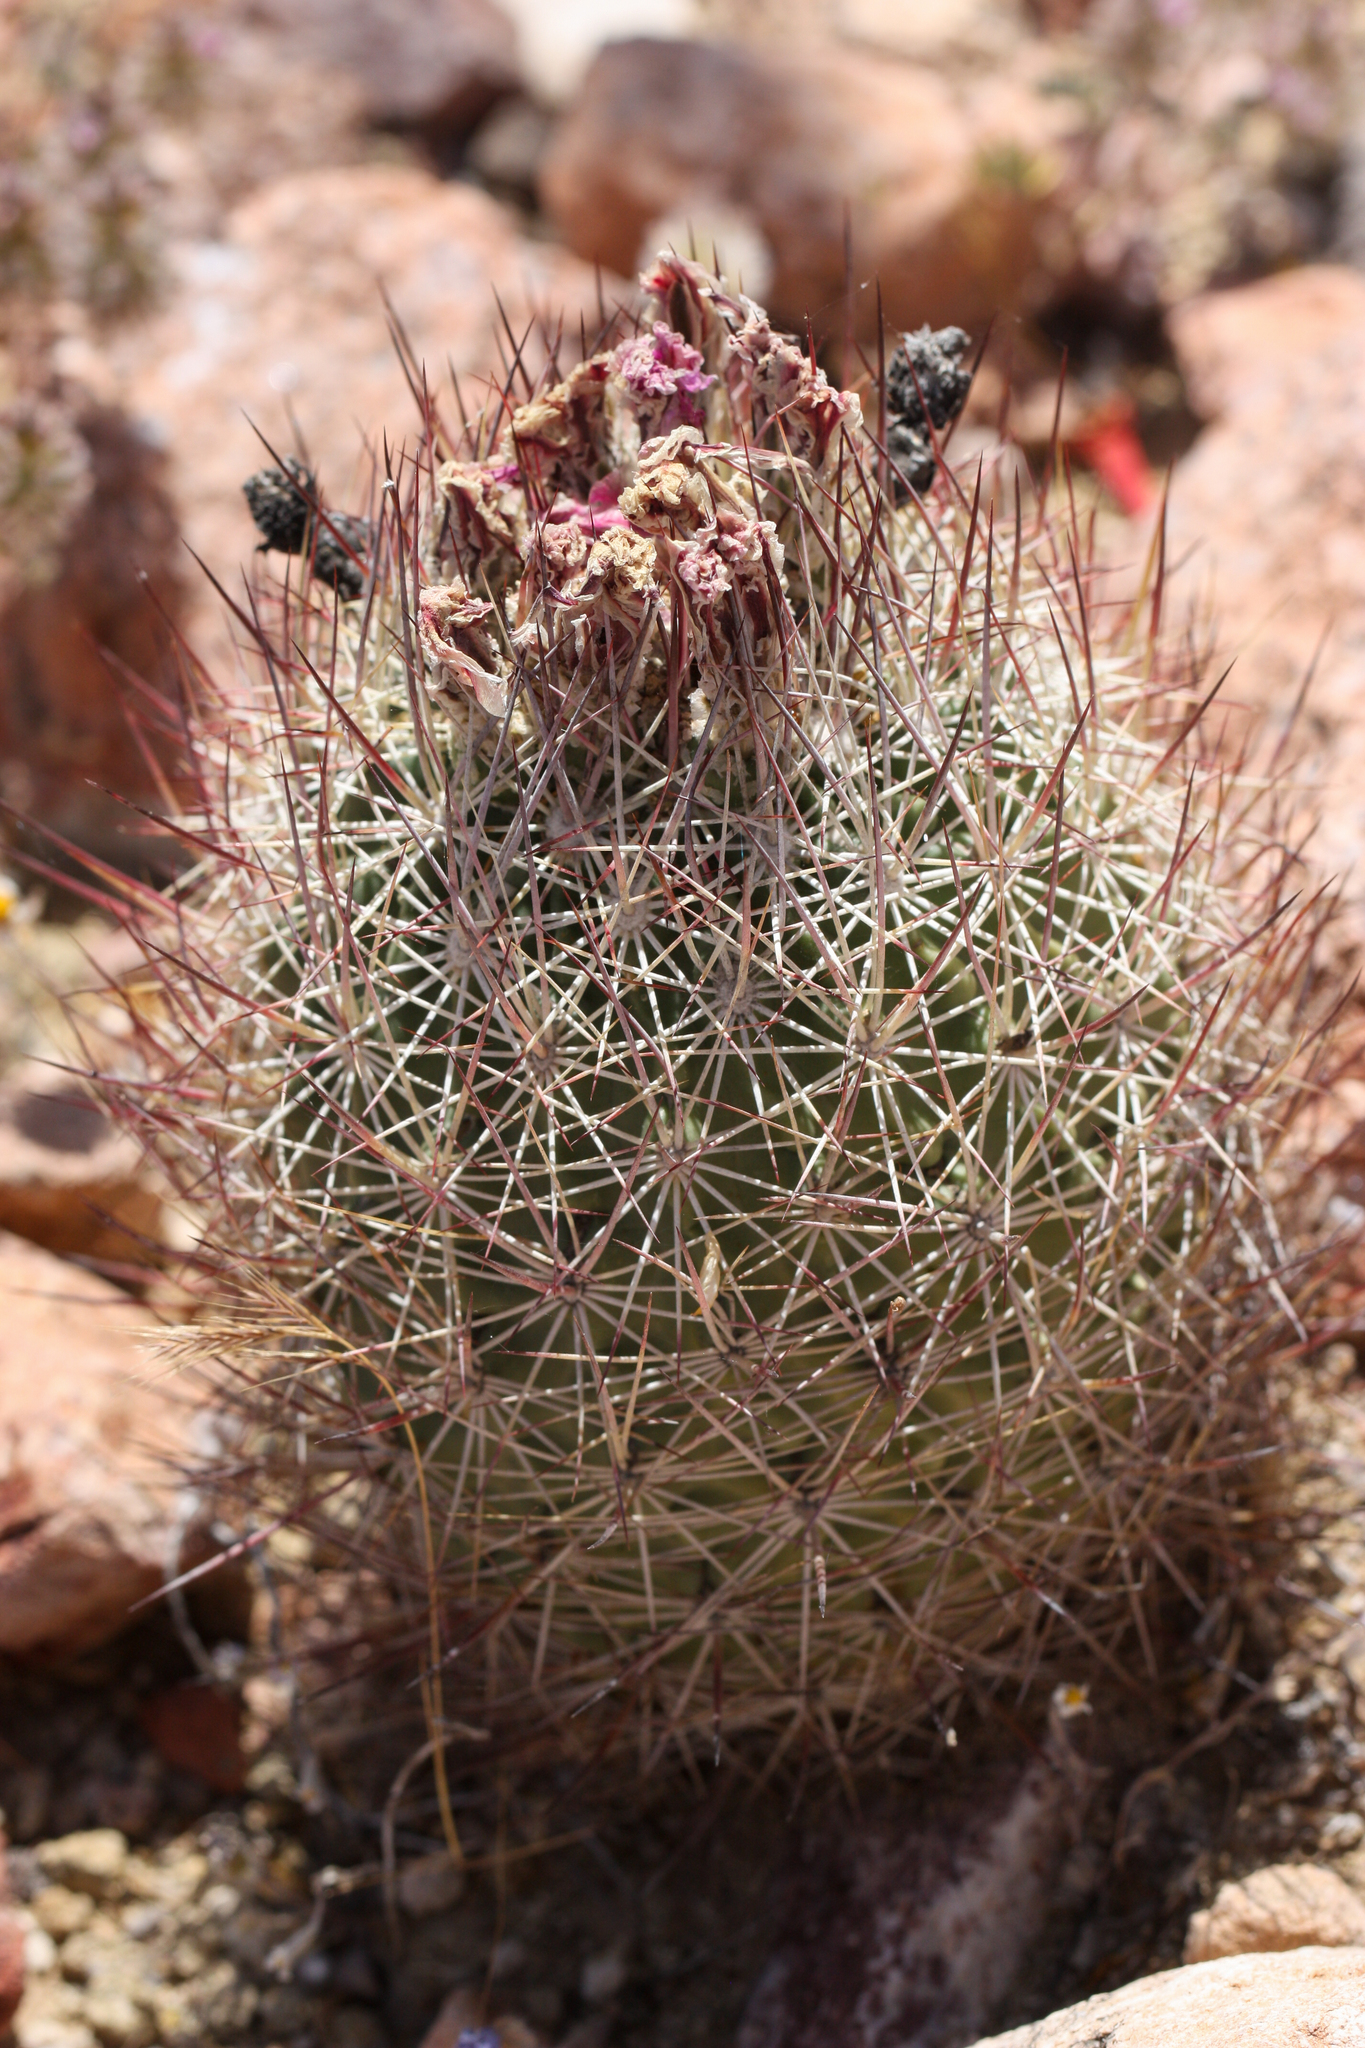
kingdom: Plantae
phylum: Tracheophyta
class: Magnoliopsida
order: Caryophyllales
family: Cactaceae
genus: Sclerocactus
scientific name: Sclerocactus johnsonii
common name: Eight-spine fishhook cactus
